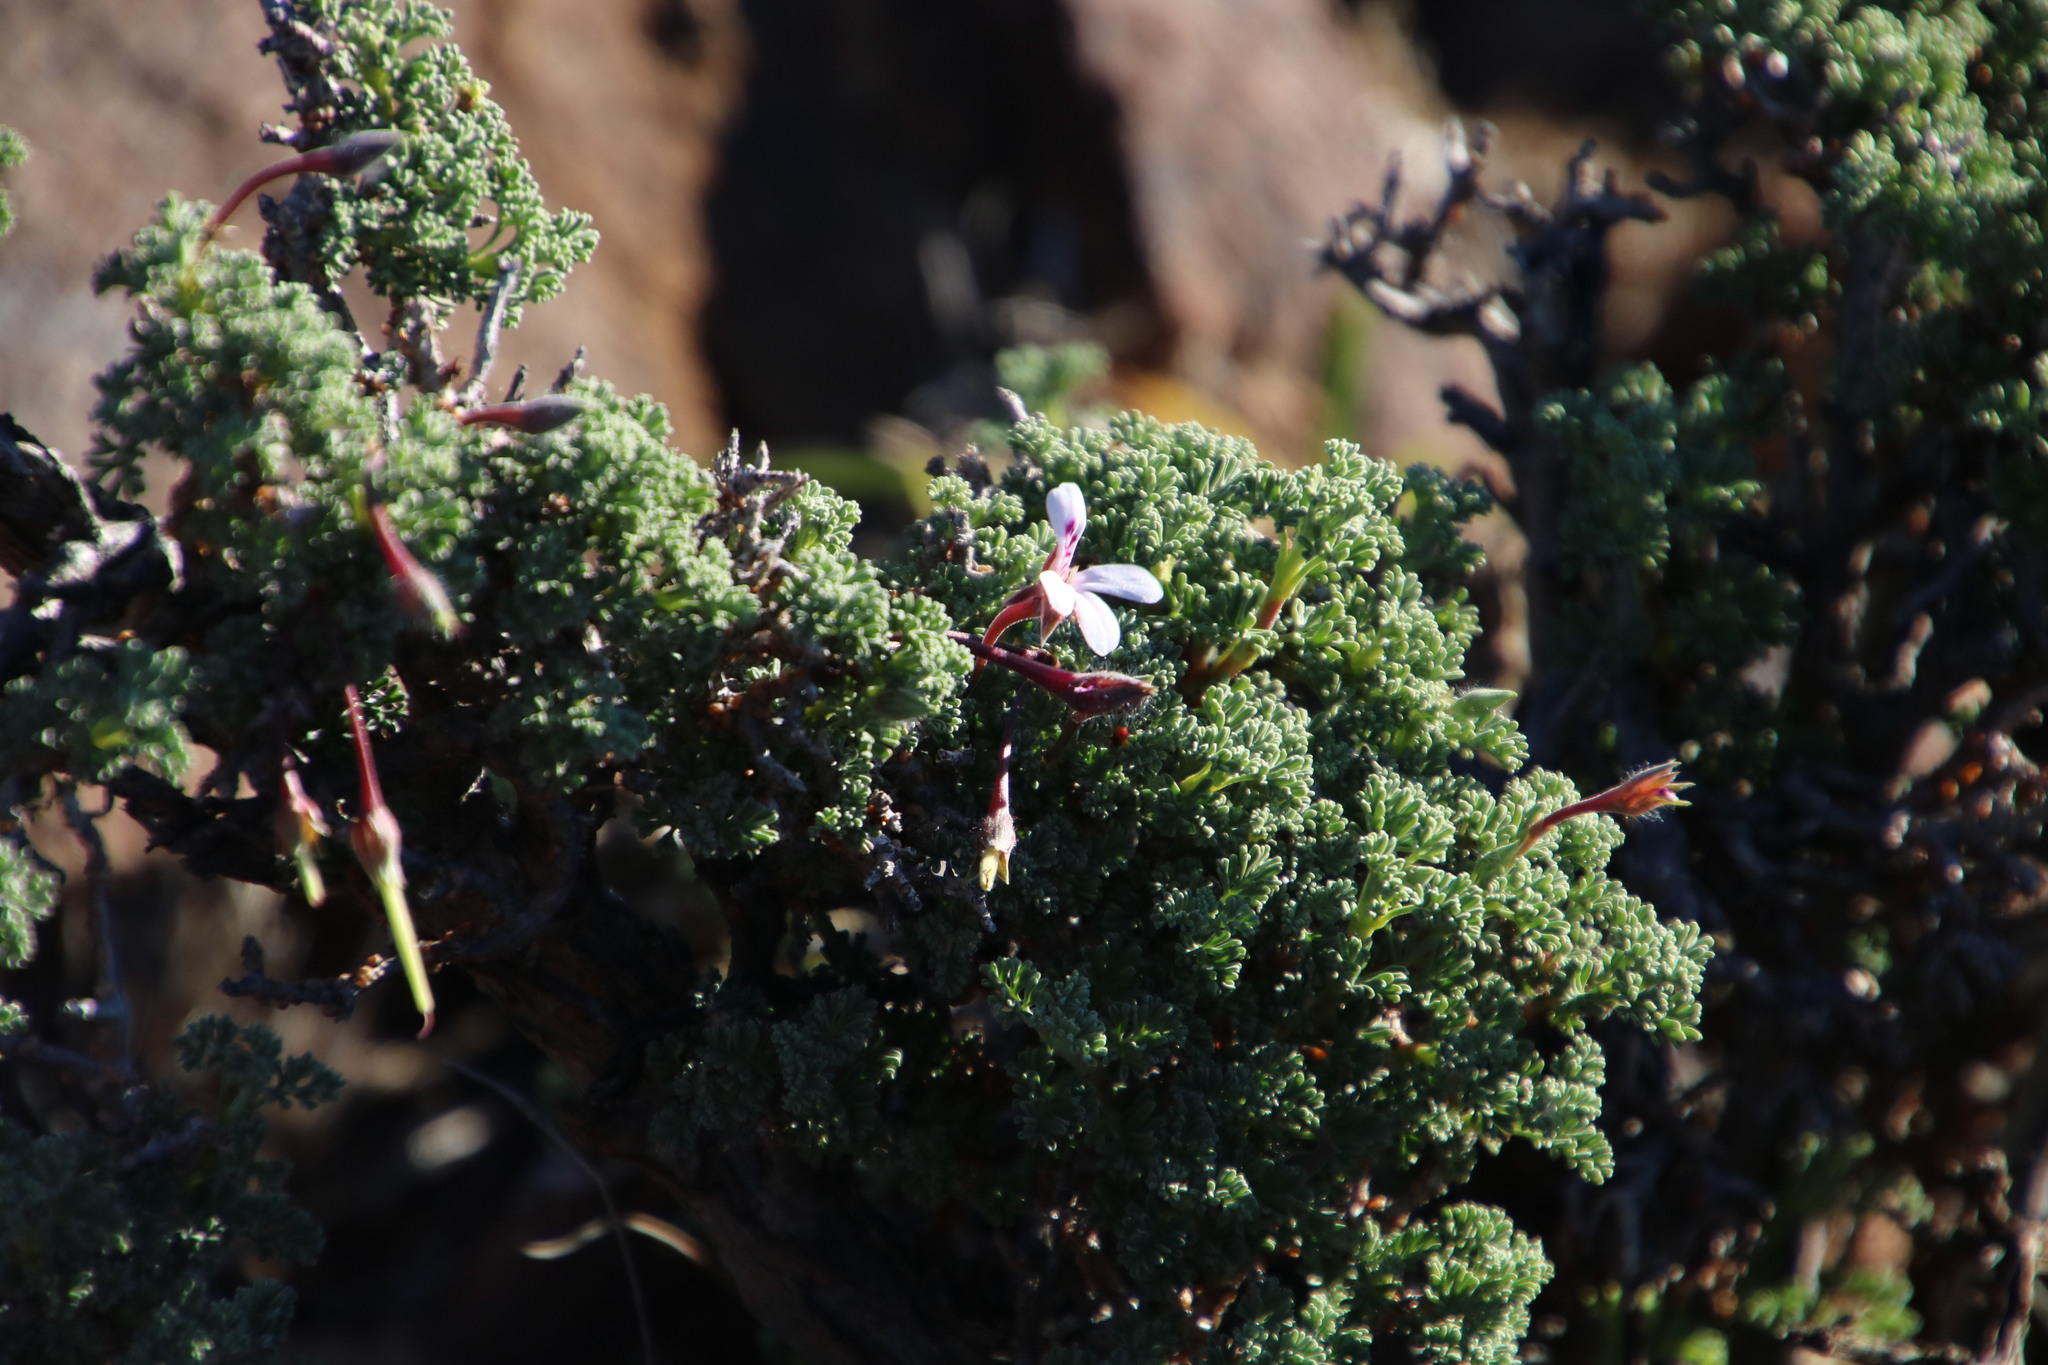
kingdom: Plantae
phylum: Tracheophyta
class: Magnoliopsida
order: Geraniales
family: Geraniaceae
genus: Pelargonium
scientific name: Pelargonium abrotanifolium
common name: Southernwood geranium
